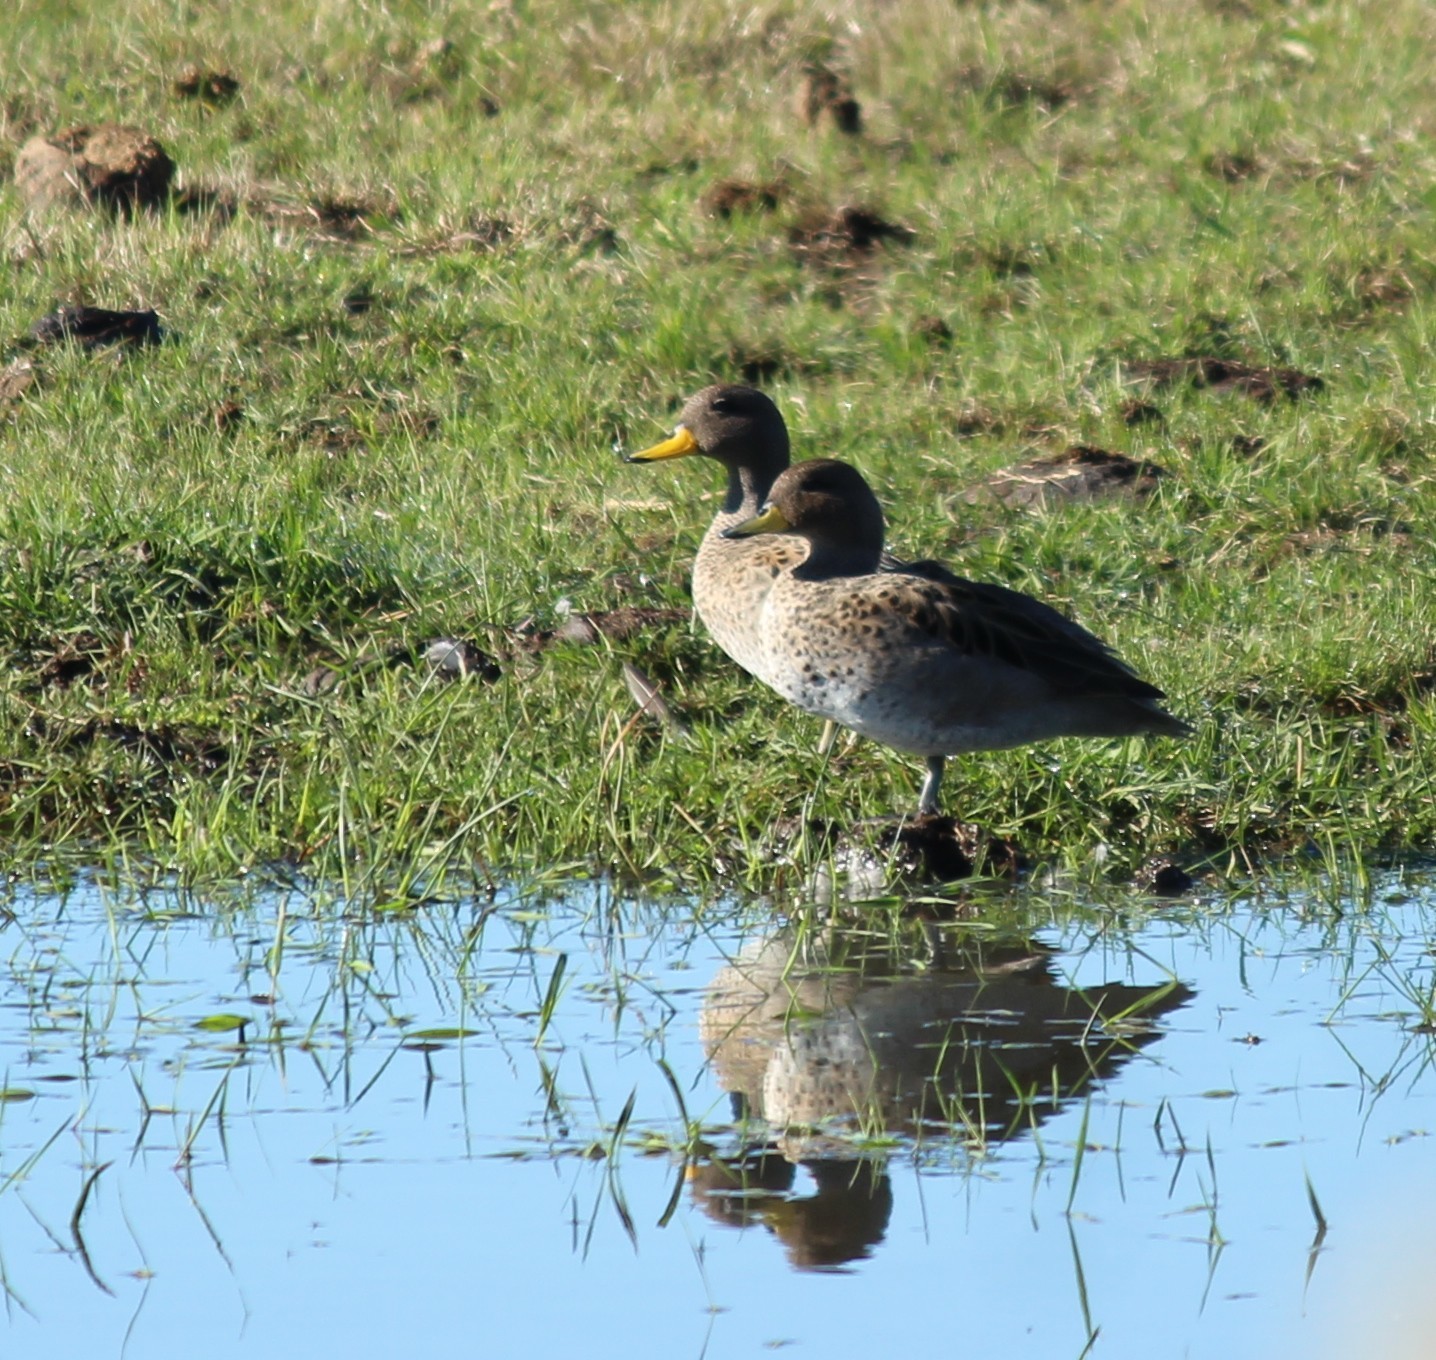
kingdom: Animalia
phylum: Chordata
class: Aves
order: Anseriformes
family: Anatidae
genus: Anas
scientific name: Anas georgica
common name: Yellow-billed pintail
